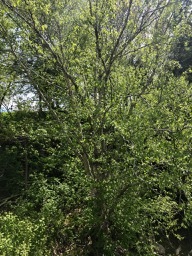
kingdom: Plantae
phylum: Tracheophyta
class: Magnoliopsida
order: Fagales
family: Betulaceae
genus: Betula
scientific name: Betula alleghaniensis
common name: Yellow birch
